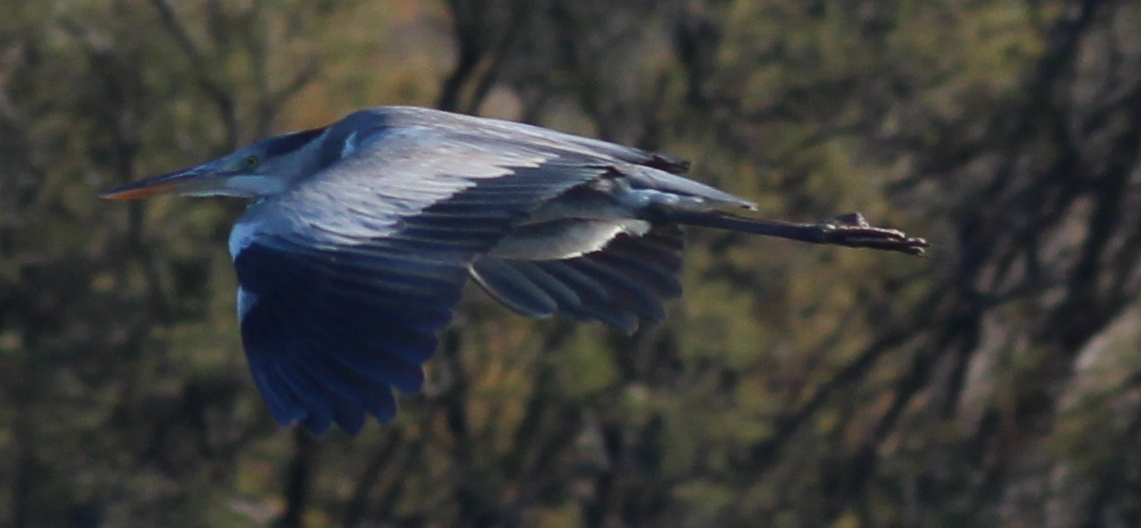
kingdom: Animalia
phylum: Chordata
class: Aves
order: Pelecaniformes
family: Ardeidae
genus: Ardea
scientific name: Ardea cinerea
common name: Grey heron
